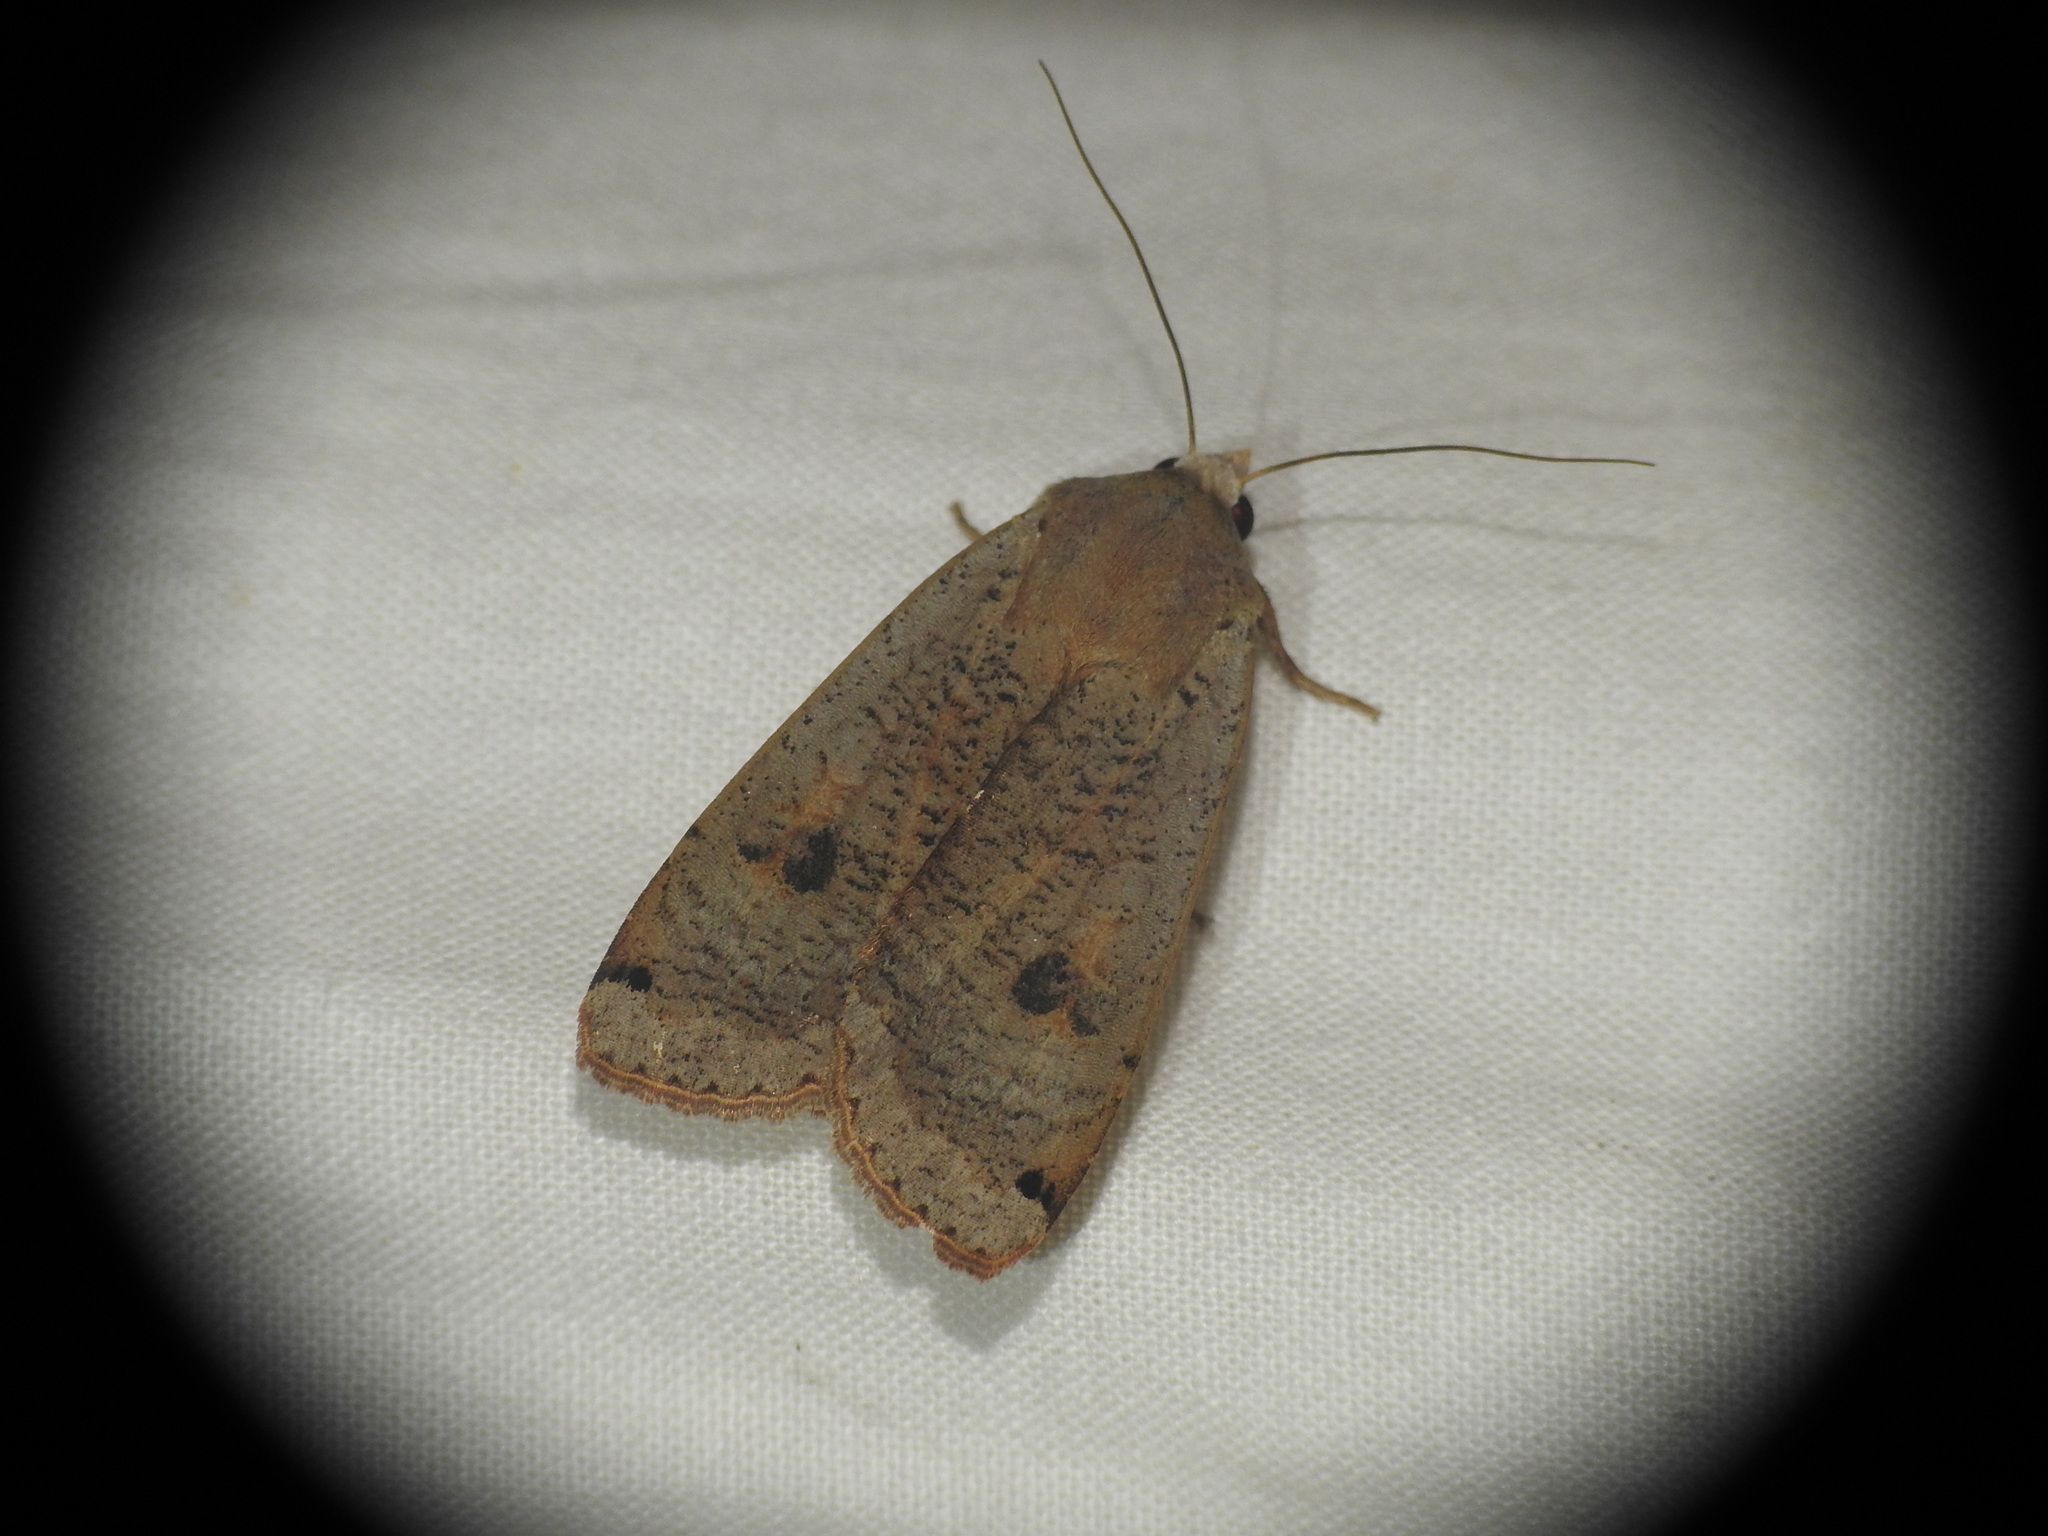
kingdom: Animalia
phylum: Arthropoda
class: Insecta
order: Lepidoptera
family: Noctuidae
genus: Noctua
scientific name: Noctua pronuba
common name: Large yellow underwing
